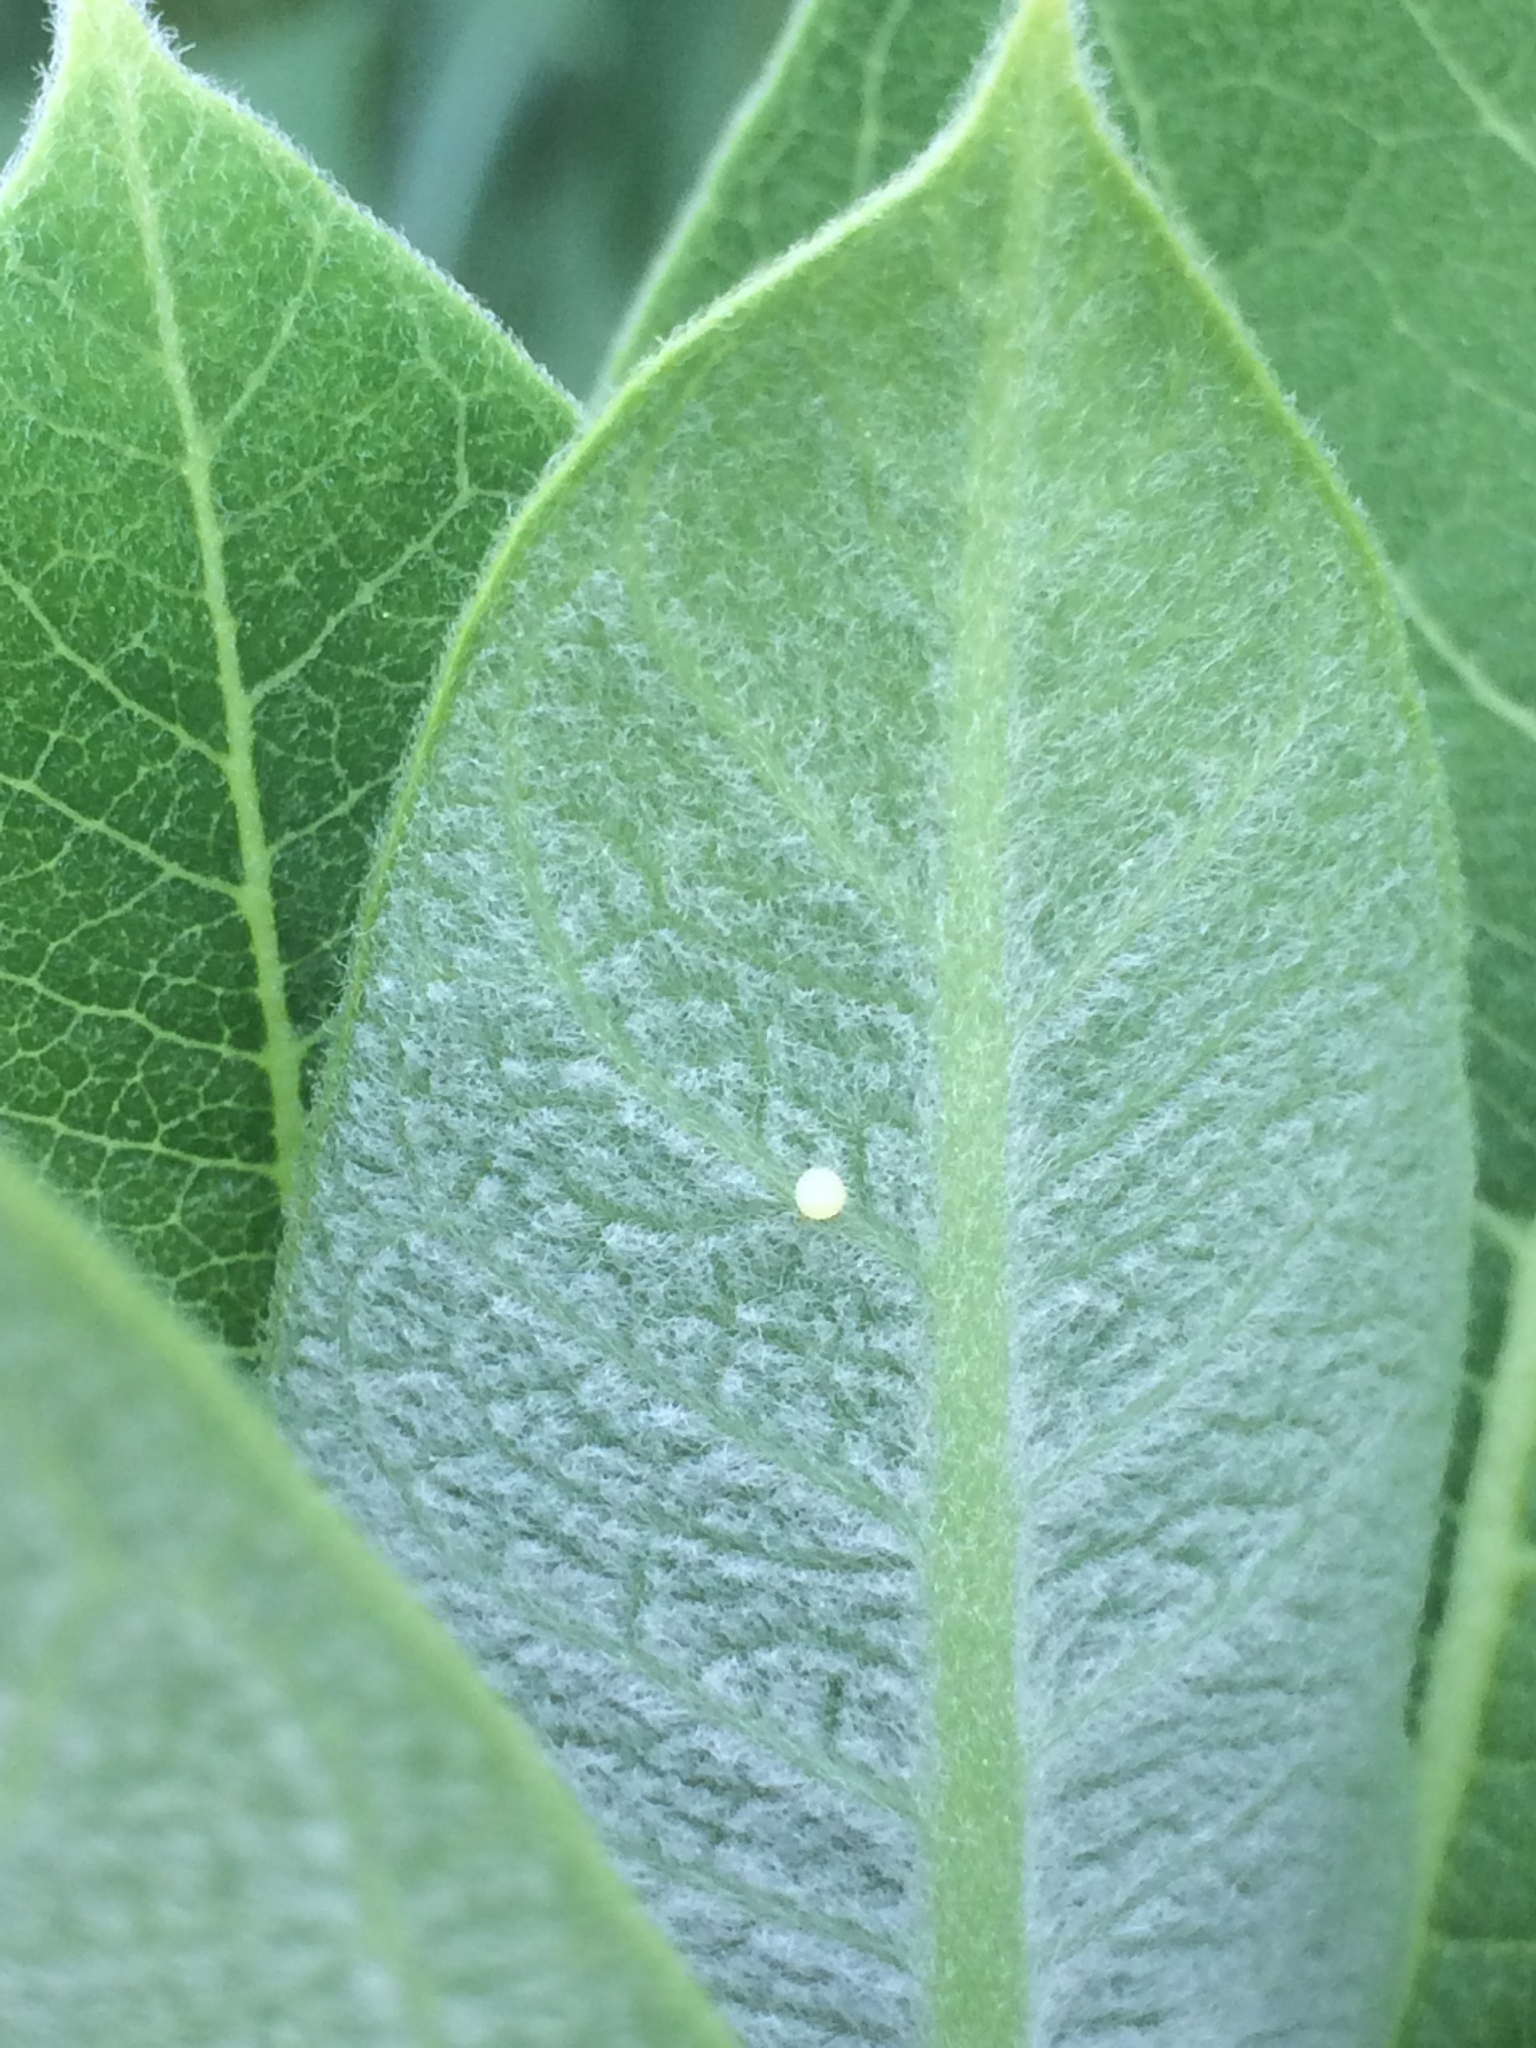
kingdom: Animalia
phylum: Arthropoda
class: Insecta
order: Lepidoptera
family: Nymphalidae
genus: Danaus
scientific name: Danaus plexippus
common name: Monarch
